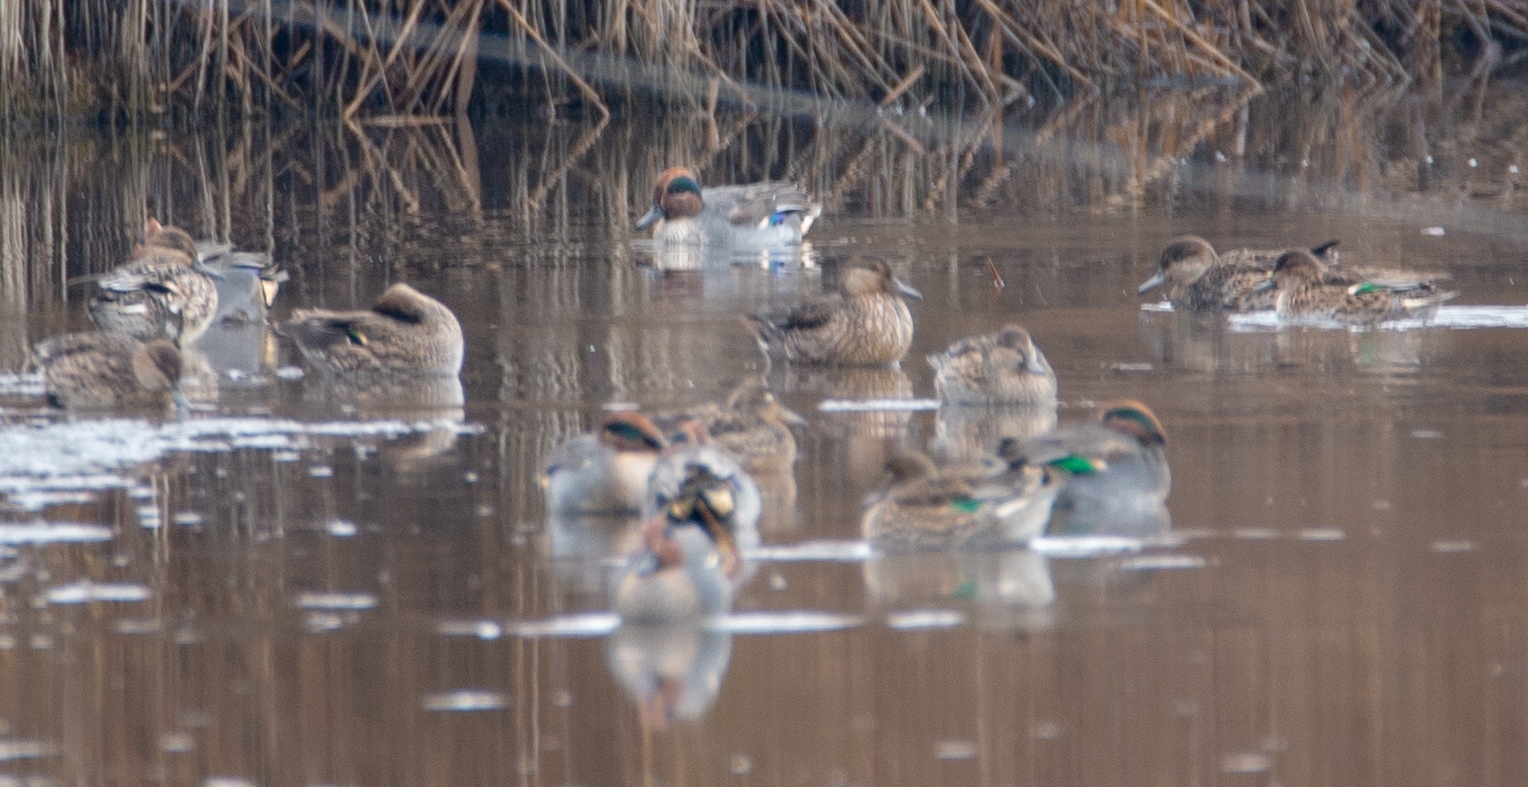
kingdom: Animalia
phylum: Chordata
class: Aves
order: Anseriformes
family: Anatidae
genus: Anas
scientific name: Anas crecca
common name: Eurasian teal
